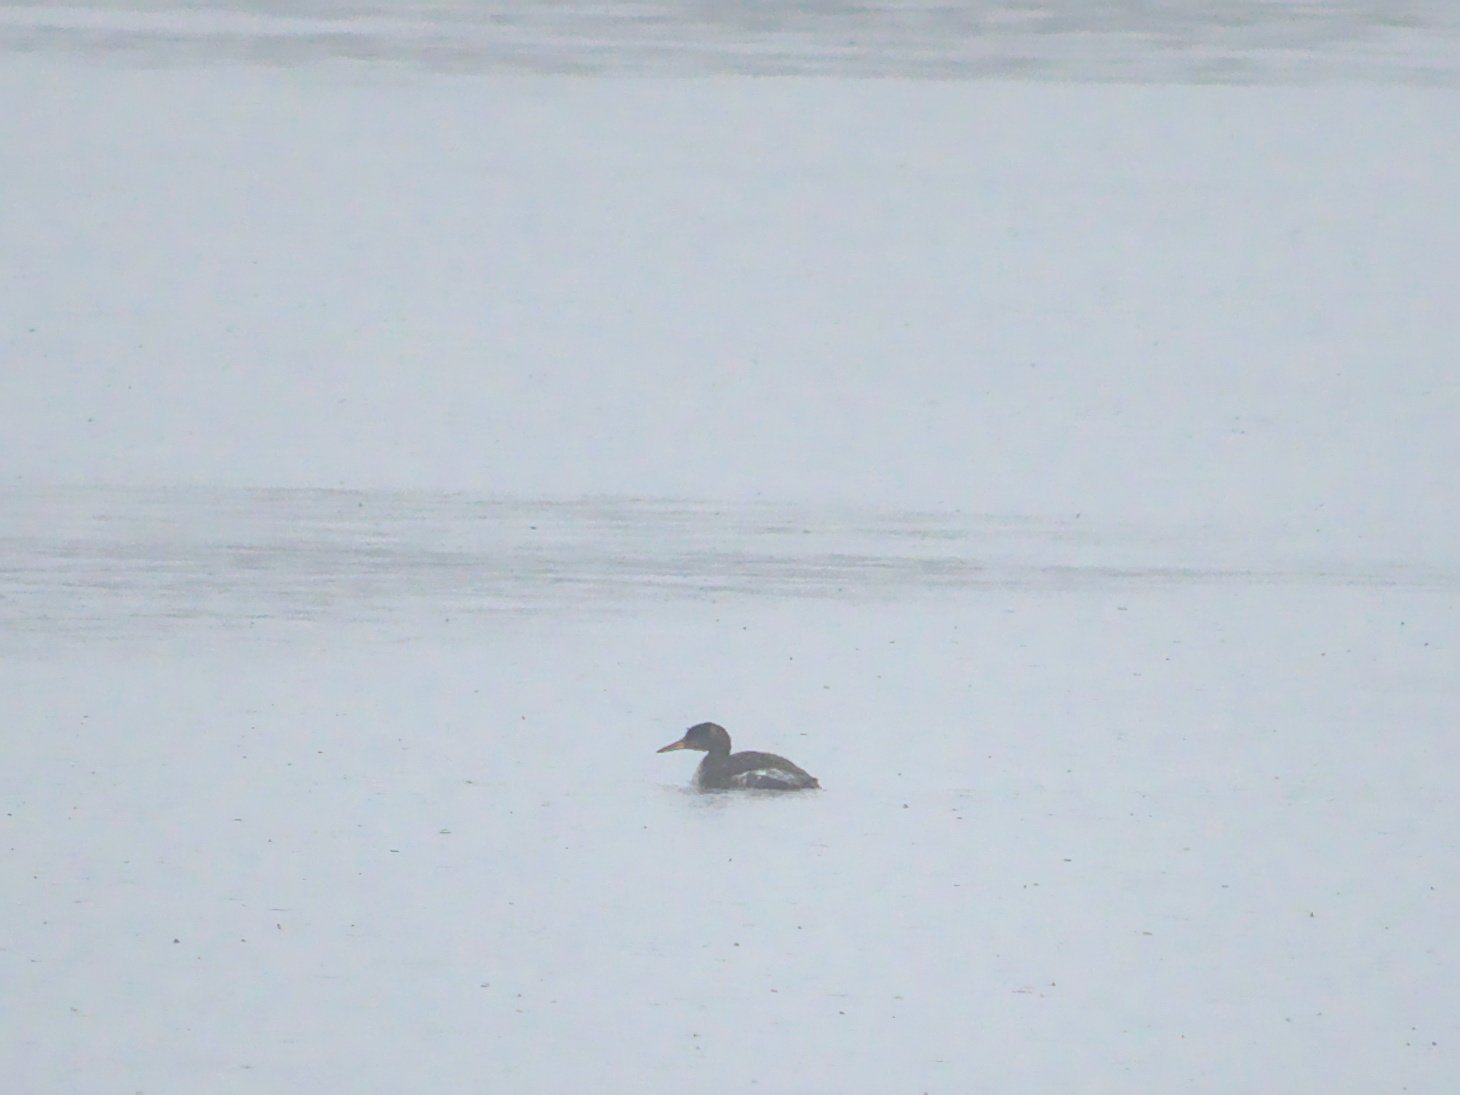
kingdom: Animalia
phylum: Chordata
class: Aves
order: Podicipediformes
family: Podicipedidae
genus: Podiceps
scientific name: Podiceps grisegena
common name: Red-necked grebe
